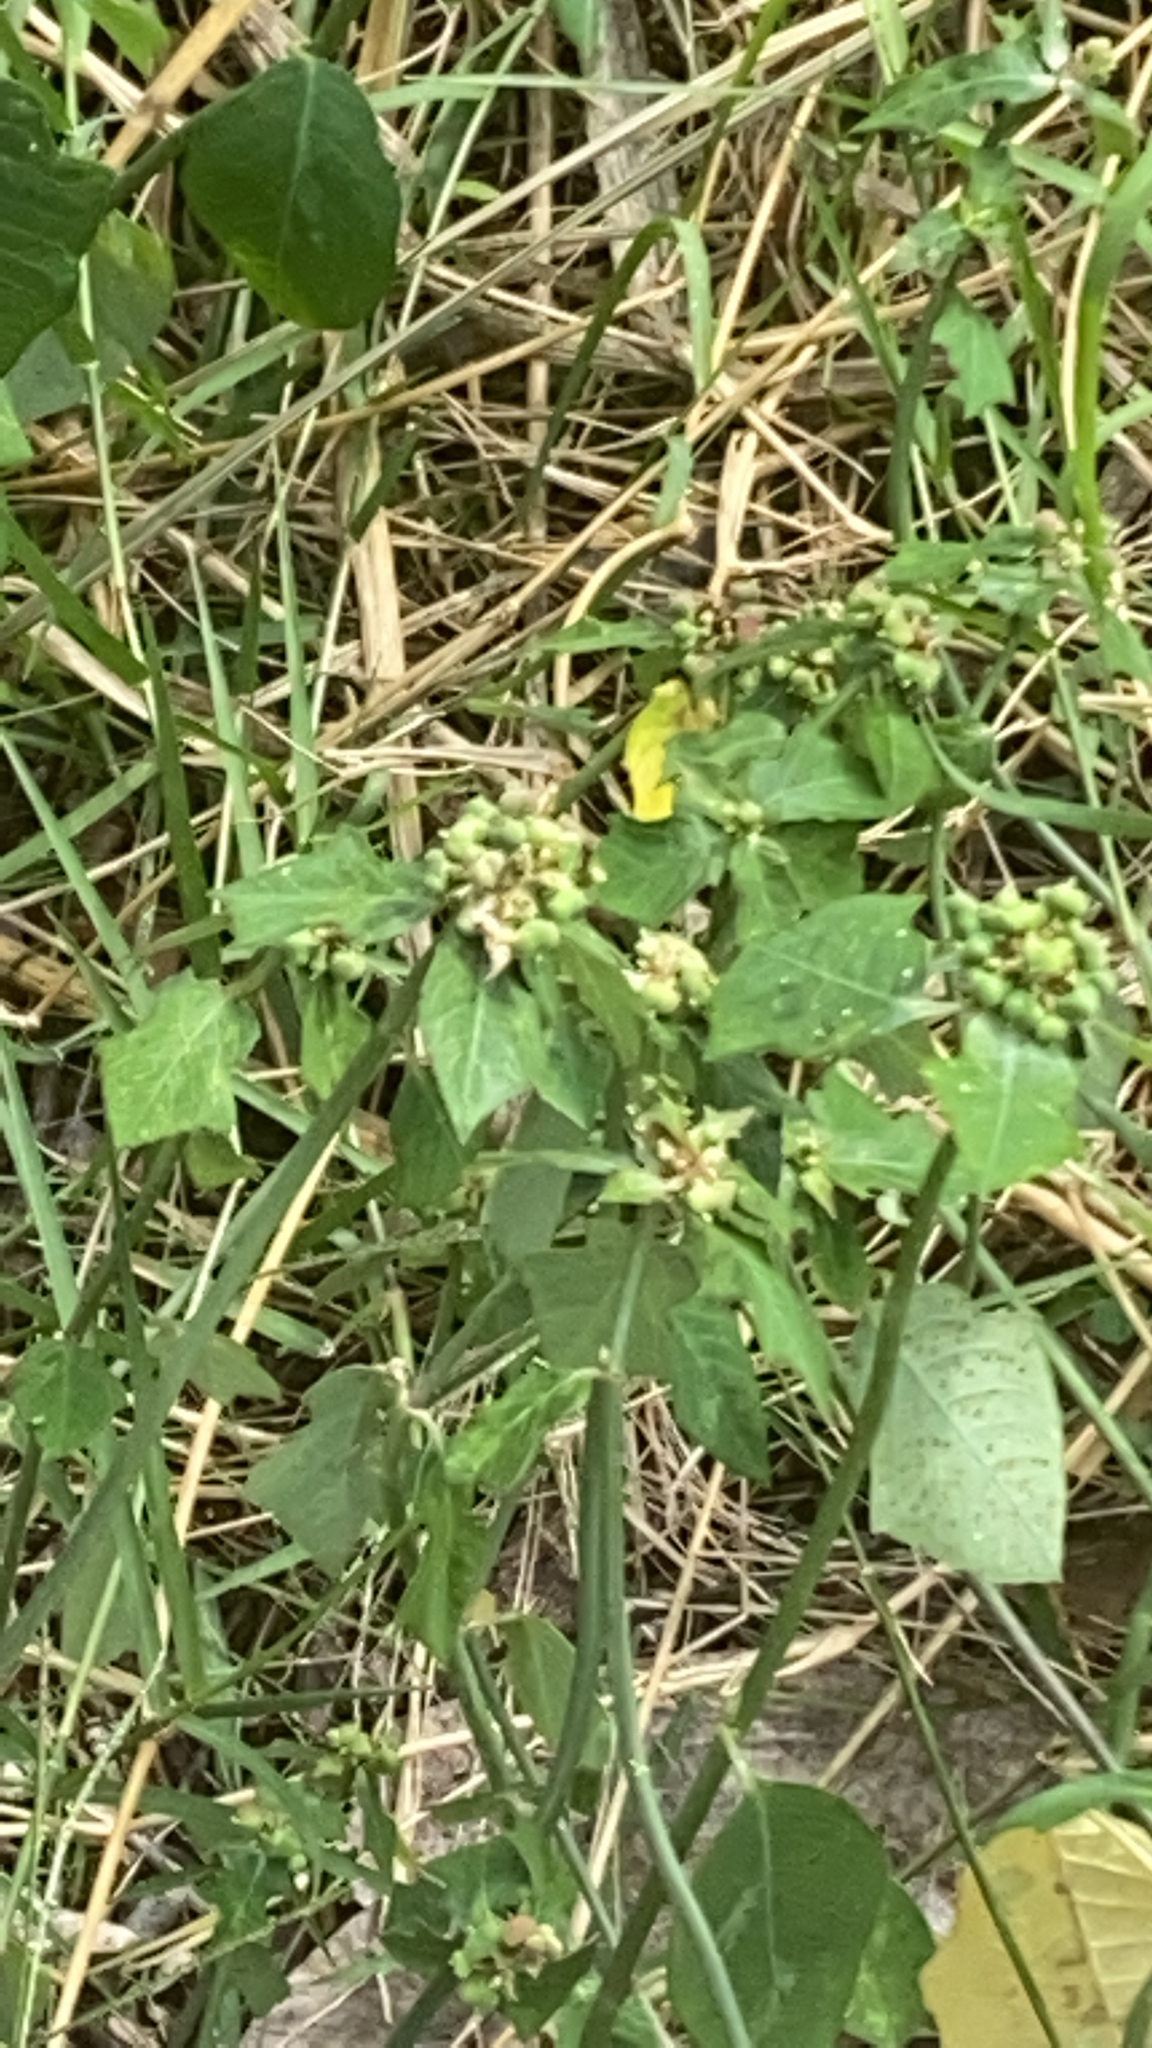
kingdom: Plantae
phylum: Tracheophyta
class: Magnoliopsida
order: Malpighiales
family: Euphorbiaceae
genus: Euphorbia
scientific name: Euphorbia heterophylla
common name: Mexican fireplant
